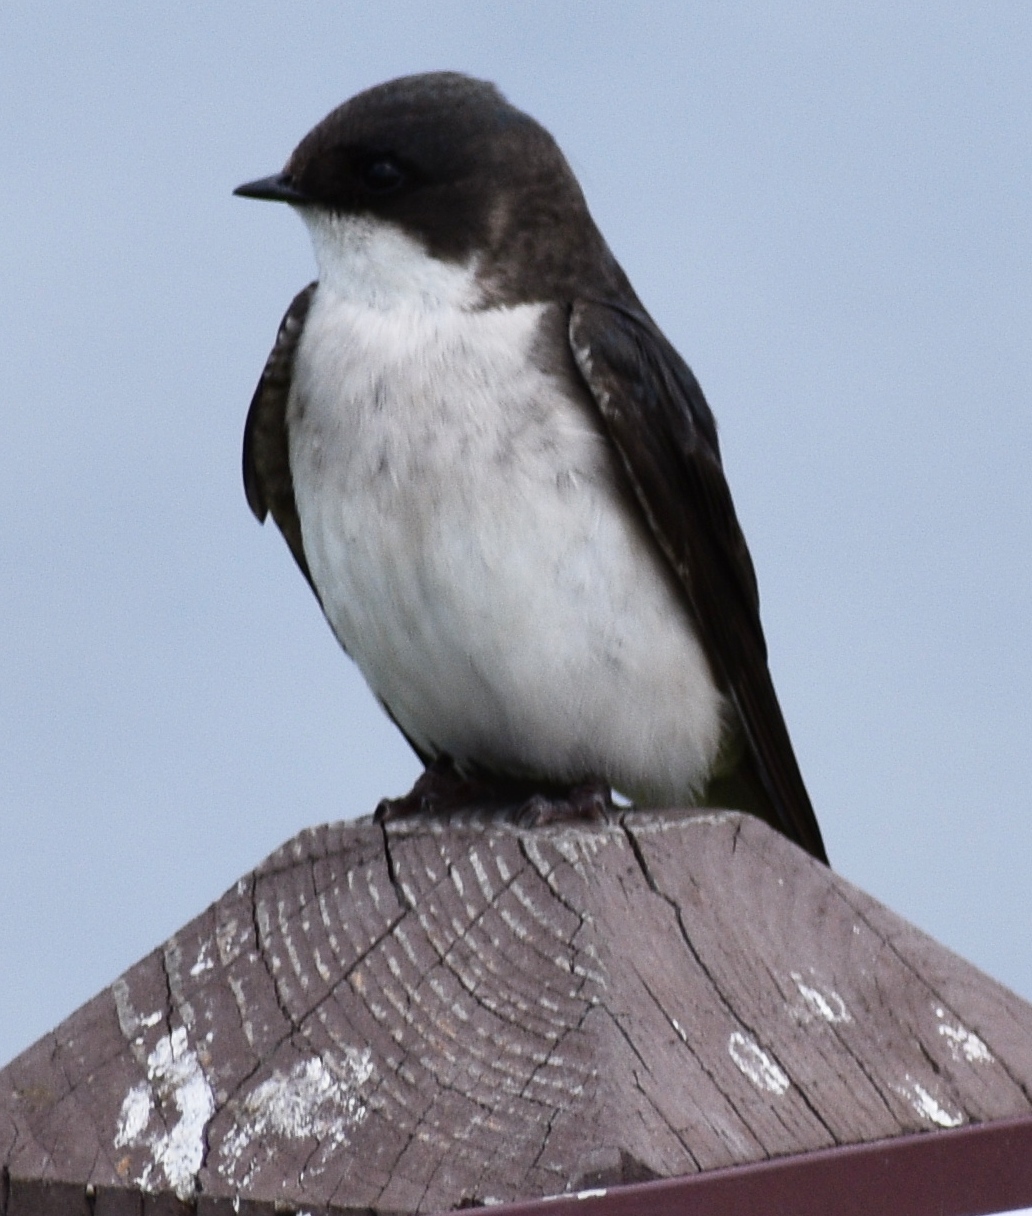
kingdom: Animalia
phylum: Chordata
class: Aves
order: Passeriformes
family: Hirundinidae
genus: Tachycineta
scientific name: Tachycineta bicolor
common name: Tree swallow
